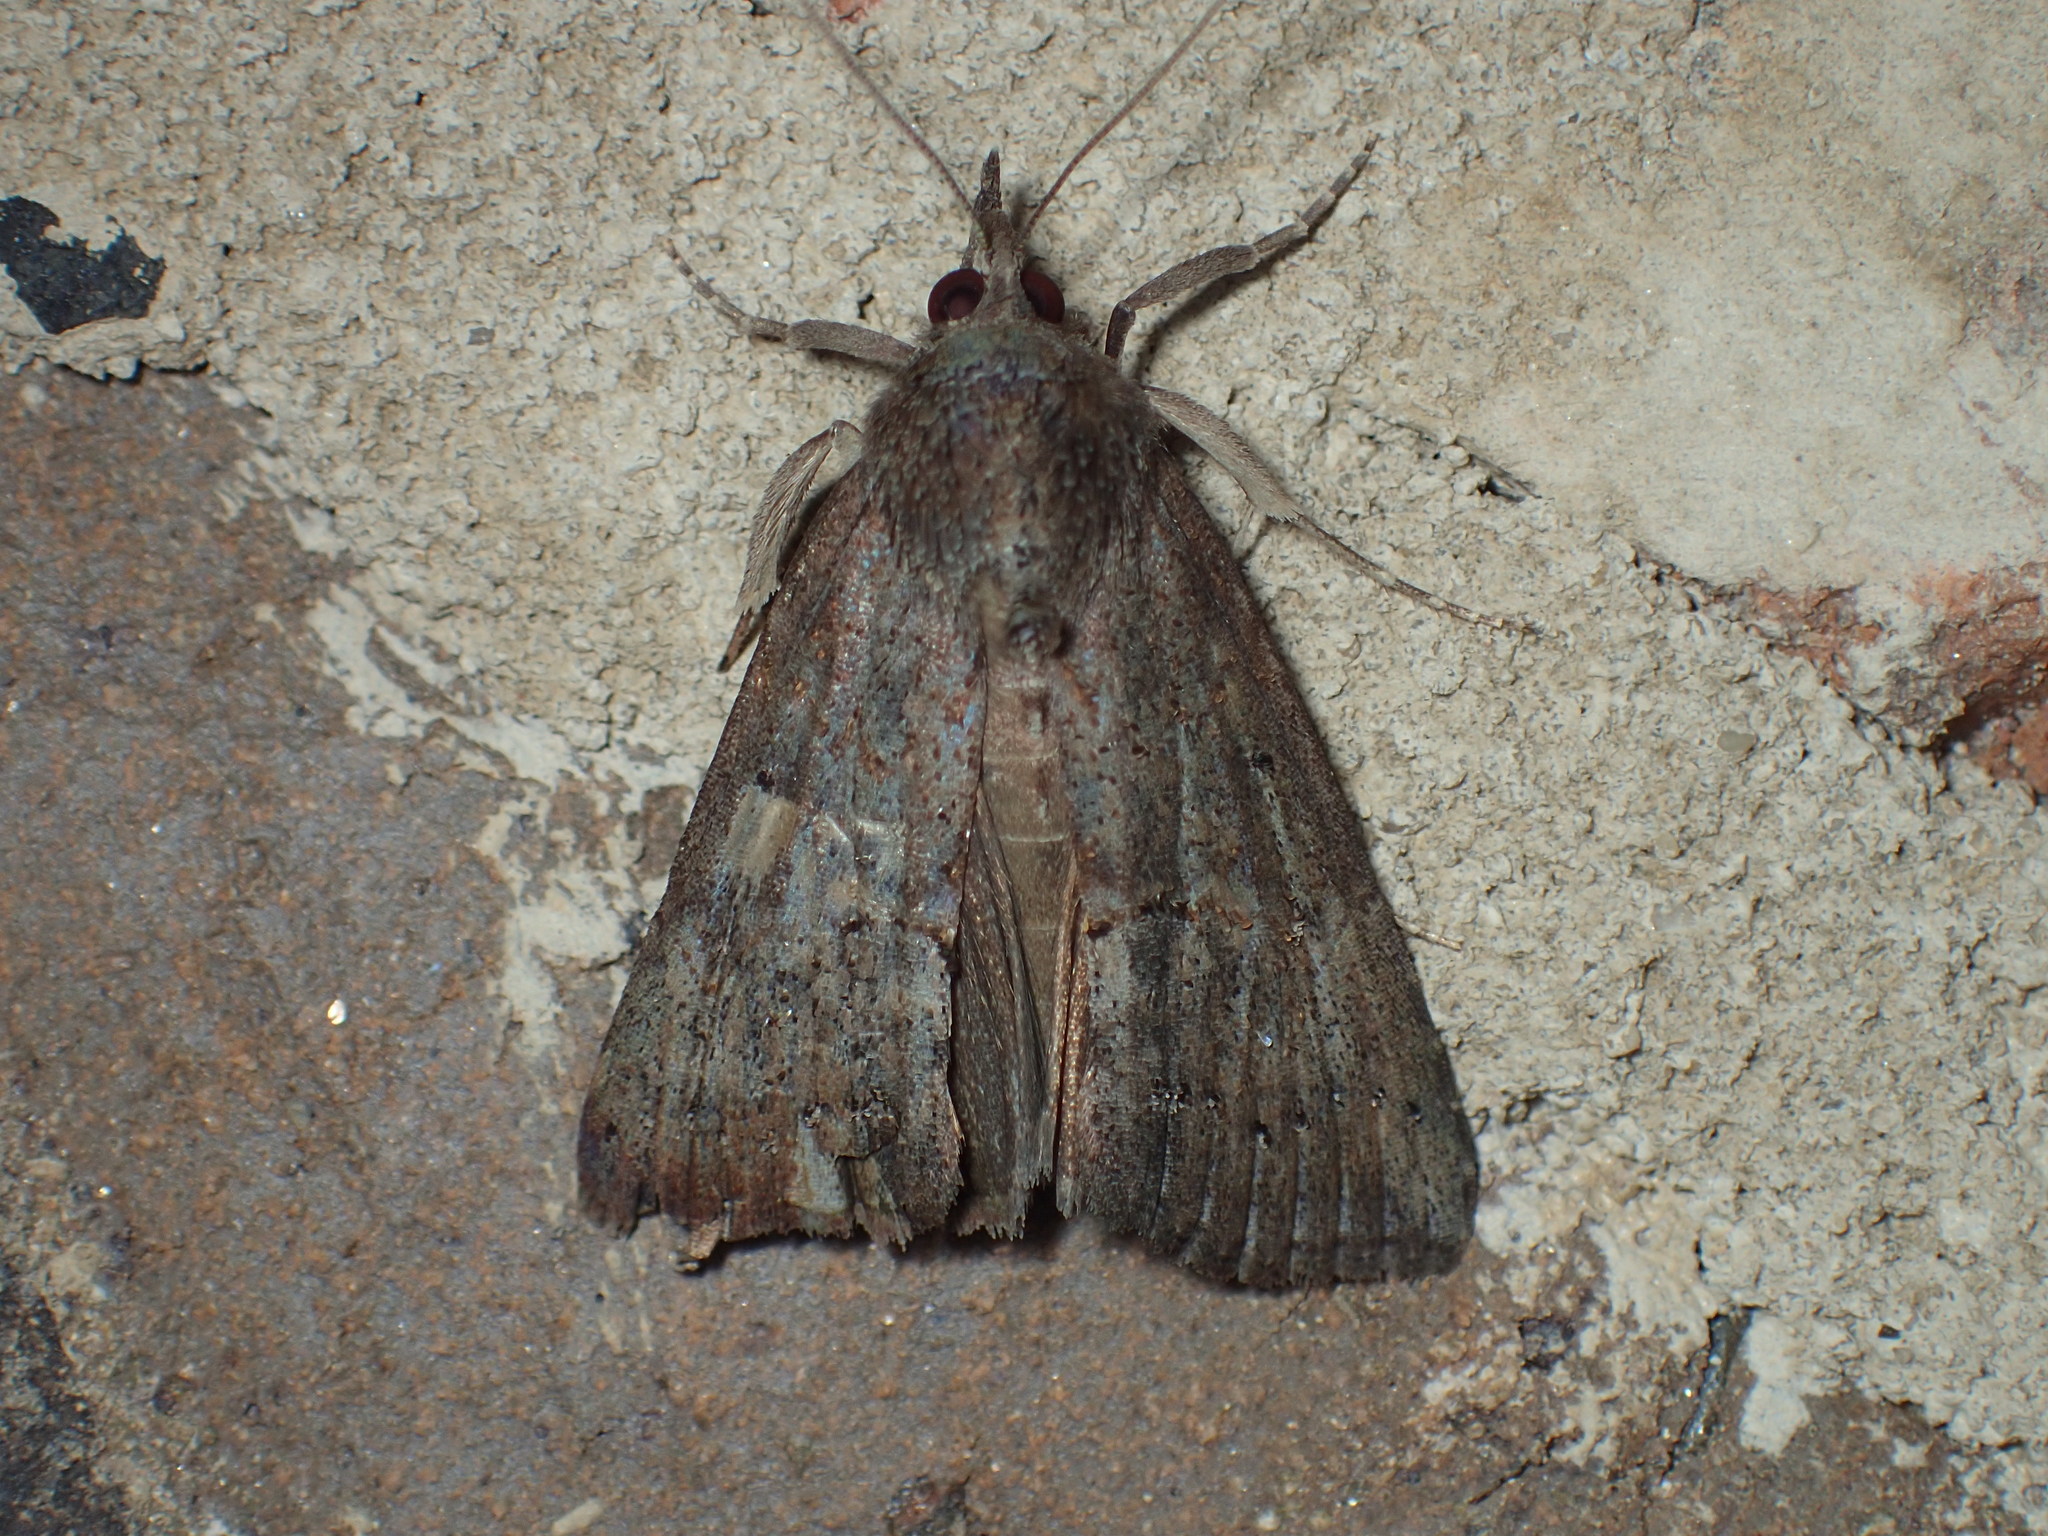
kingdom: Animalia
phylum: Arthropoda
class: Insecta
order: Lepidoptera
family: Erebidae
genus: Hypena
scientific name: Hypena scabra
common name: Green cloverworm
